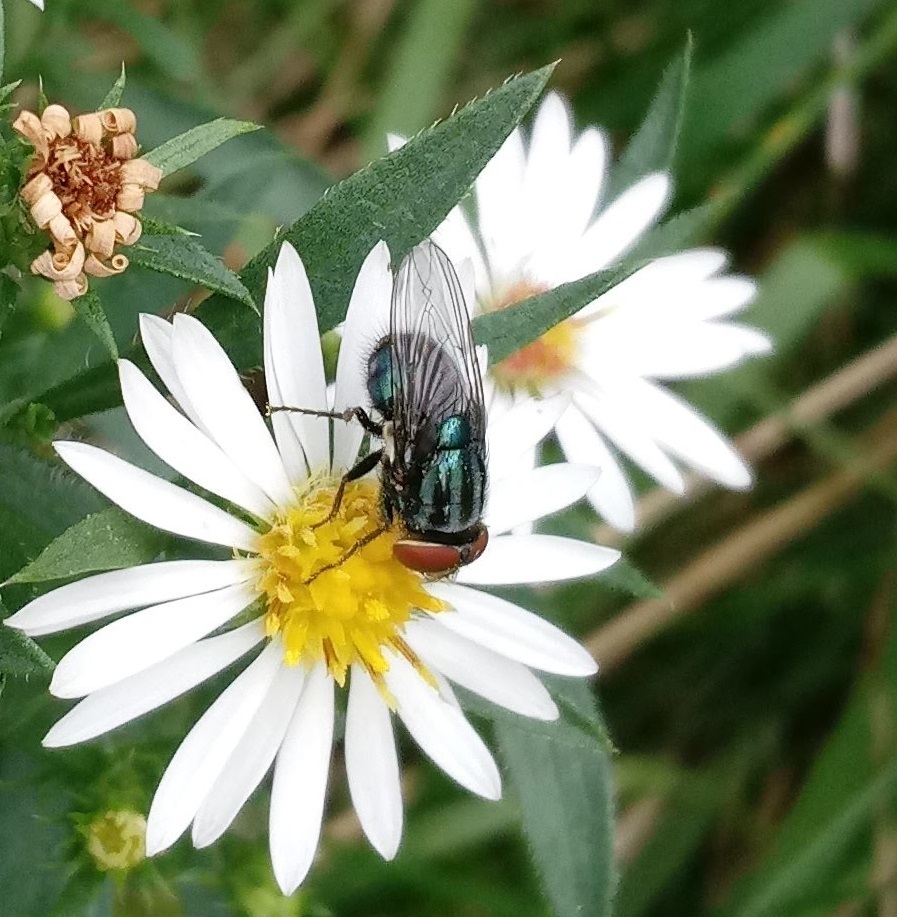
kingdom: Animalia
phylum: Arthropoda
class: Insecta
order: Diptera
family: Calliphoridae
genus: Cochliomyia
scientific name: Cochliomyia macellaria
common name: Secondary screwworm
